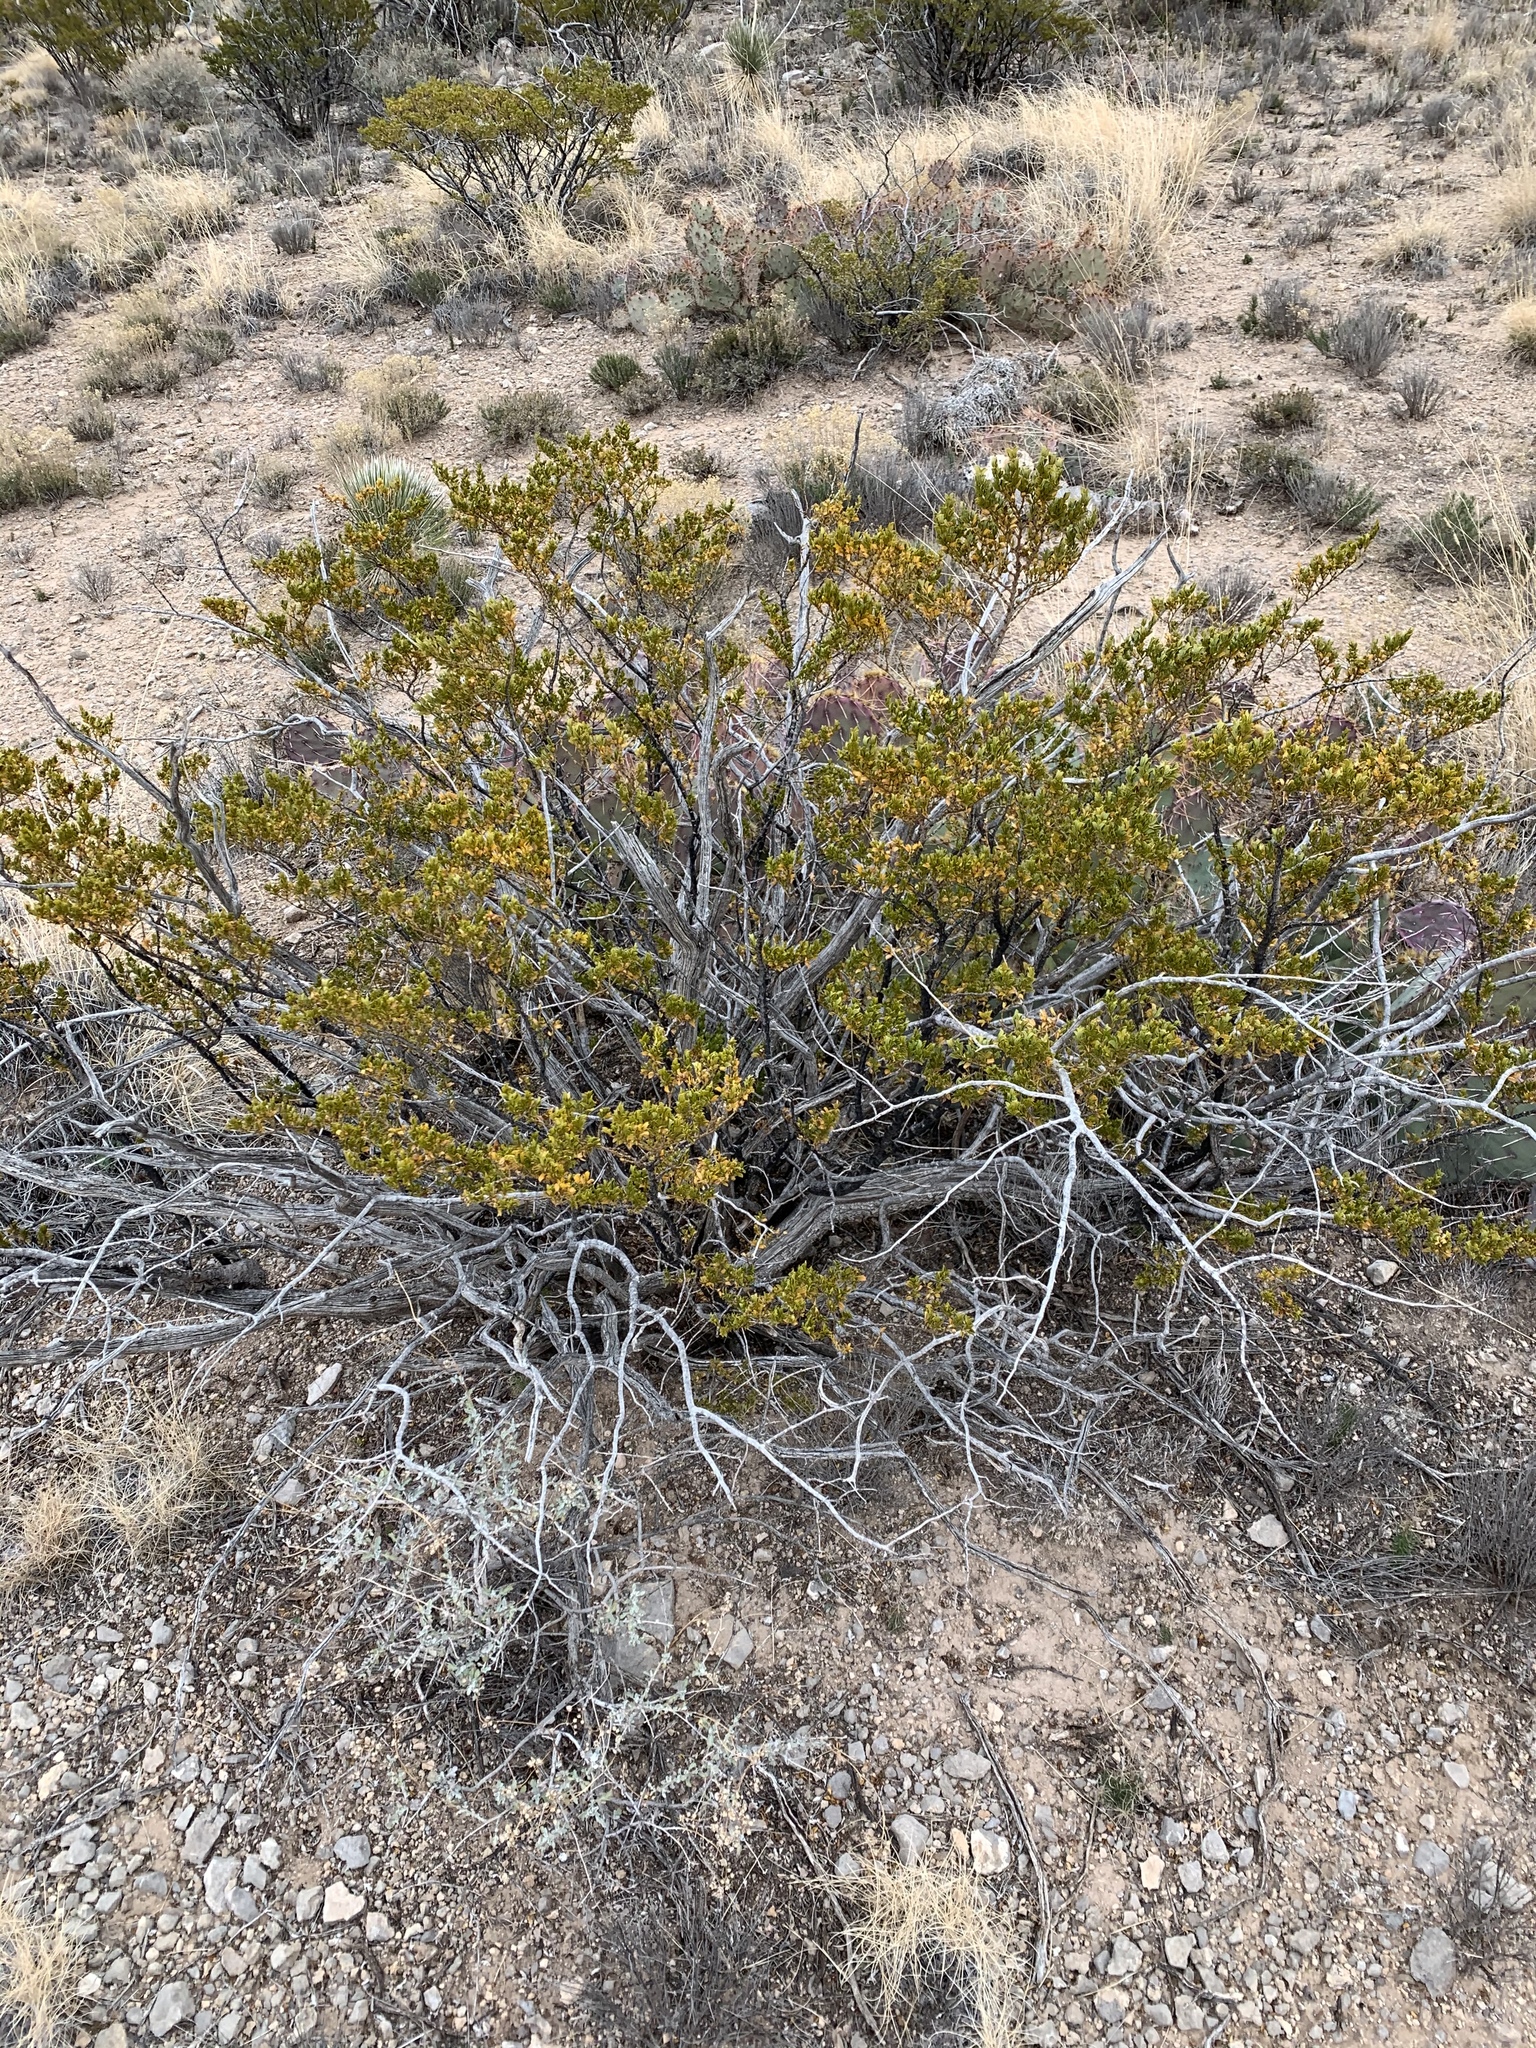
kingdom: Plantae
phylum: Tracheophyta
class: Magnoliopsida
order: Zygophyllales
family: Zygophyllaceae
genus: Larrea
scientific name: Larrea tridentata
